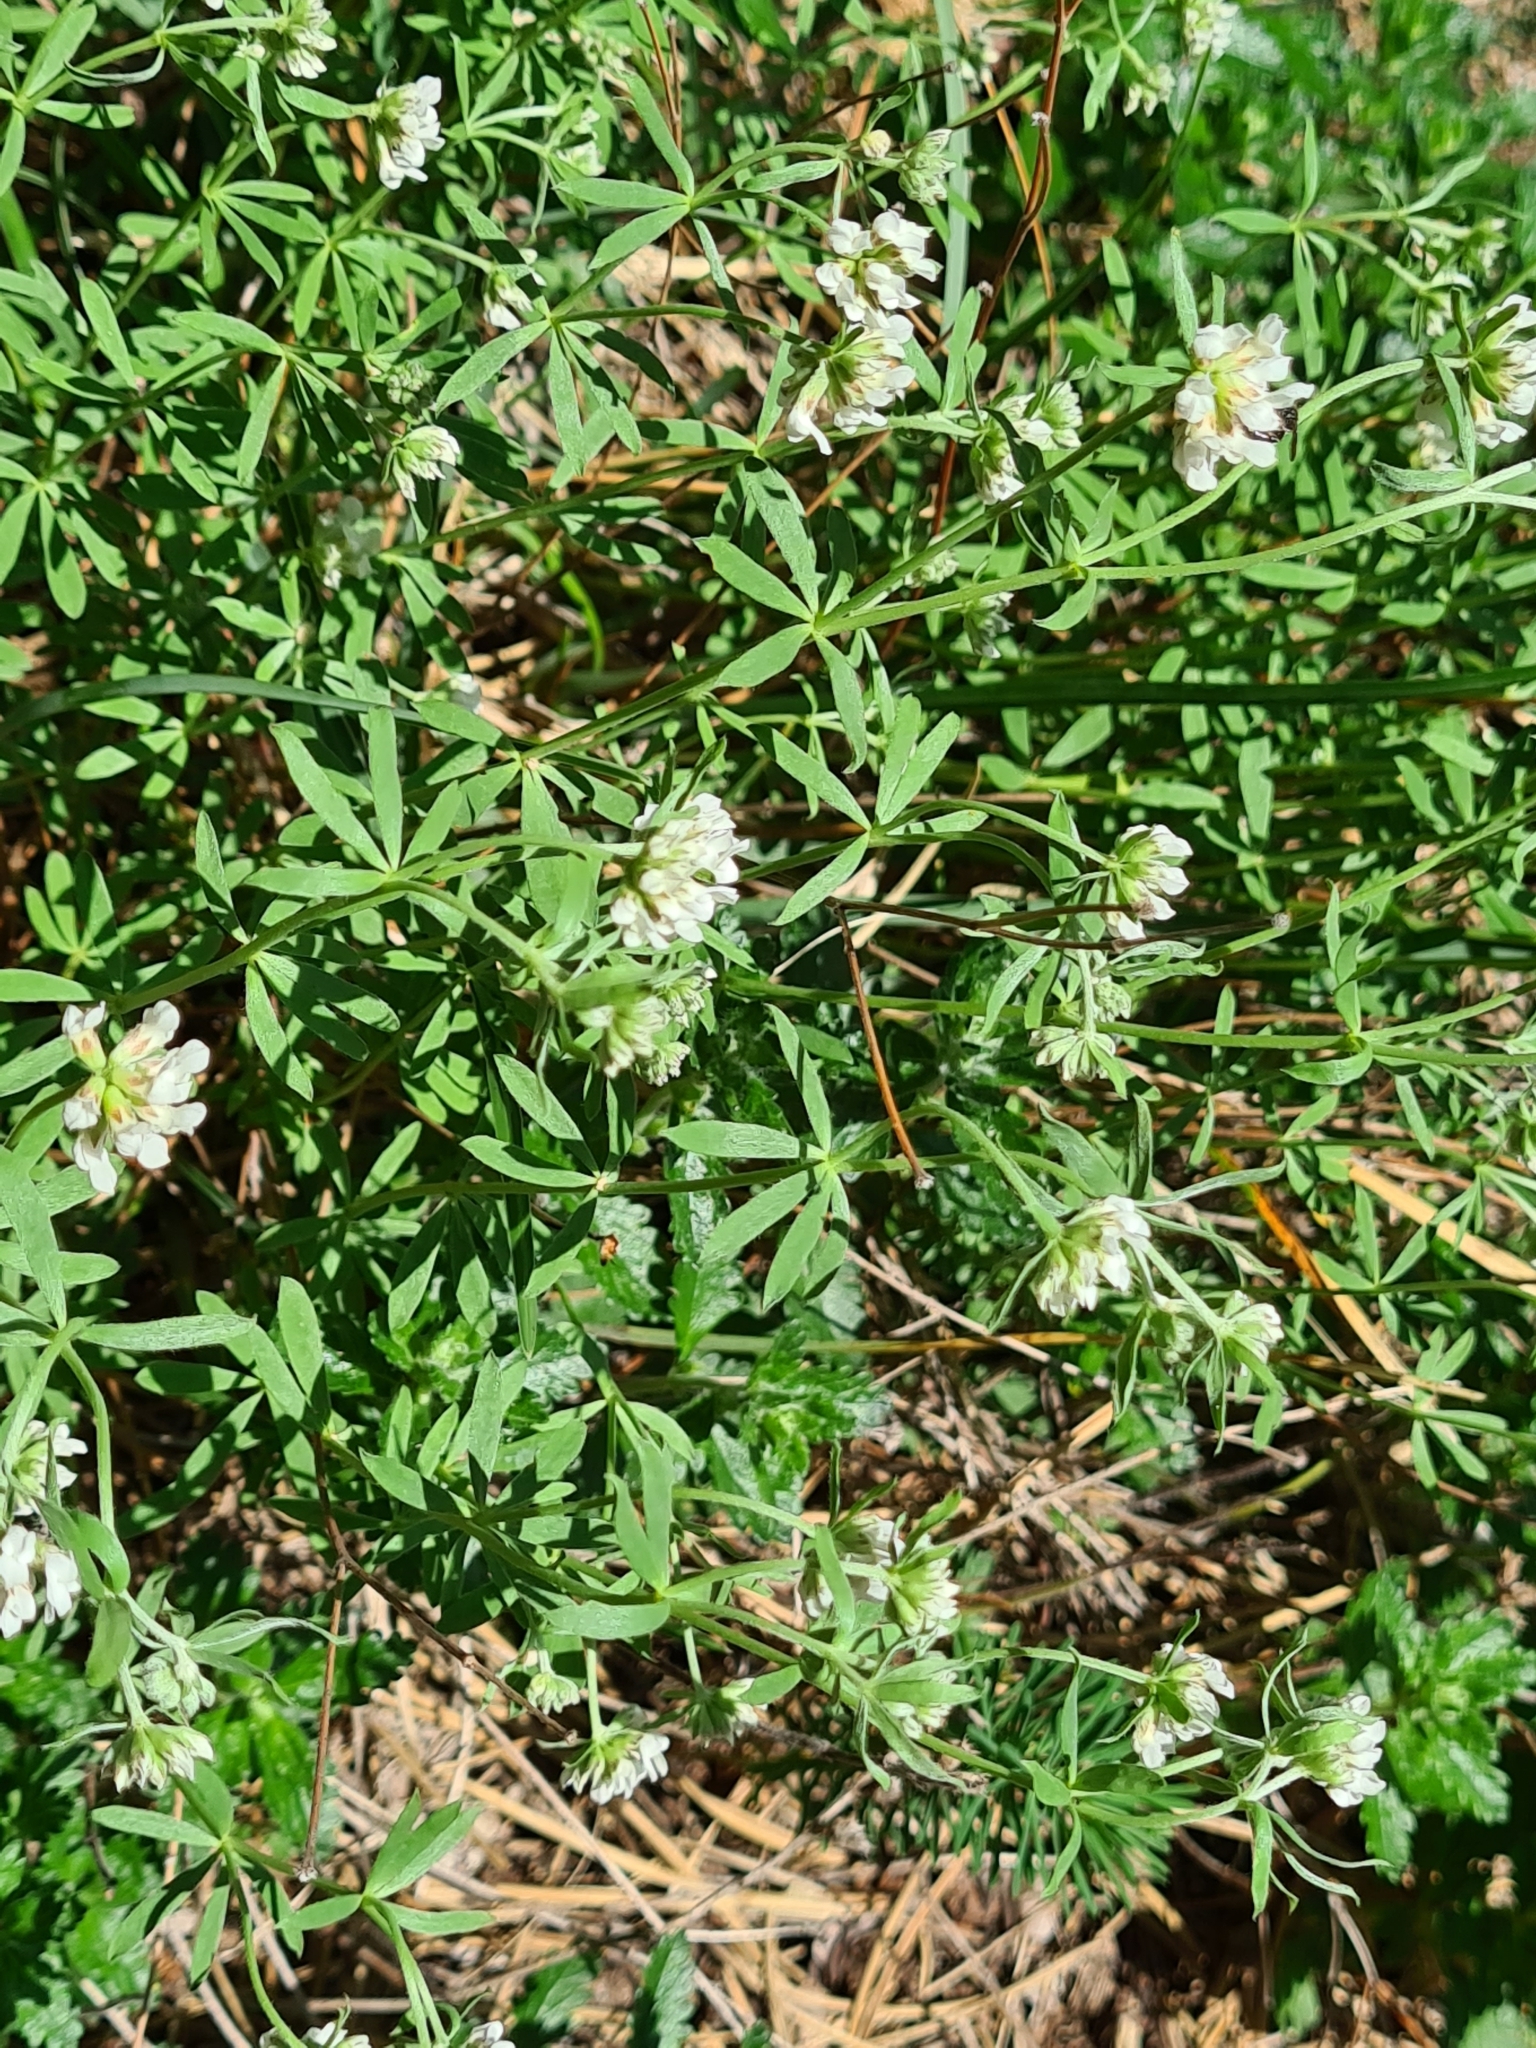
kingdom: Plantae
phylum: Tracheophyta
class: Magnoliopsida
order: Fabales
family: Fabaceae
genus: Lotus
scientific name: Lotus germanicus
